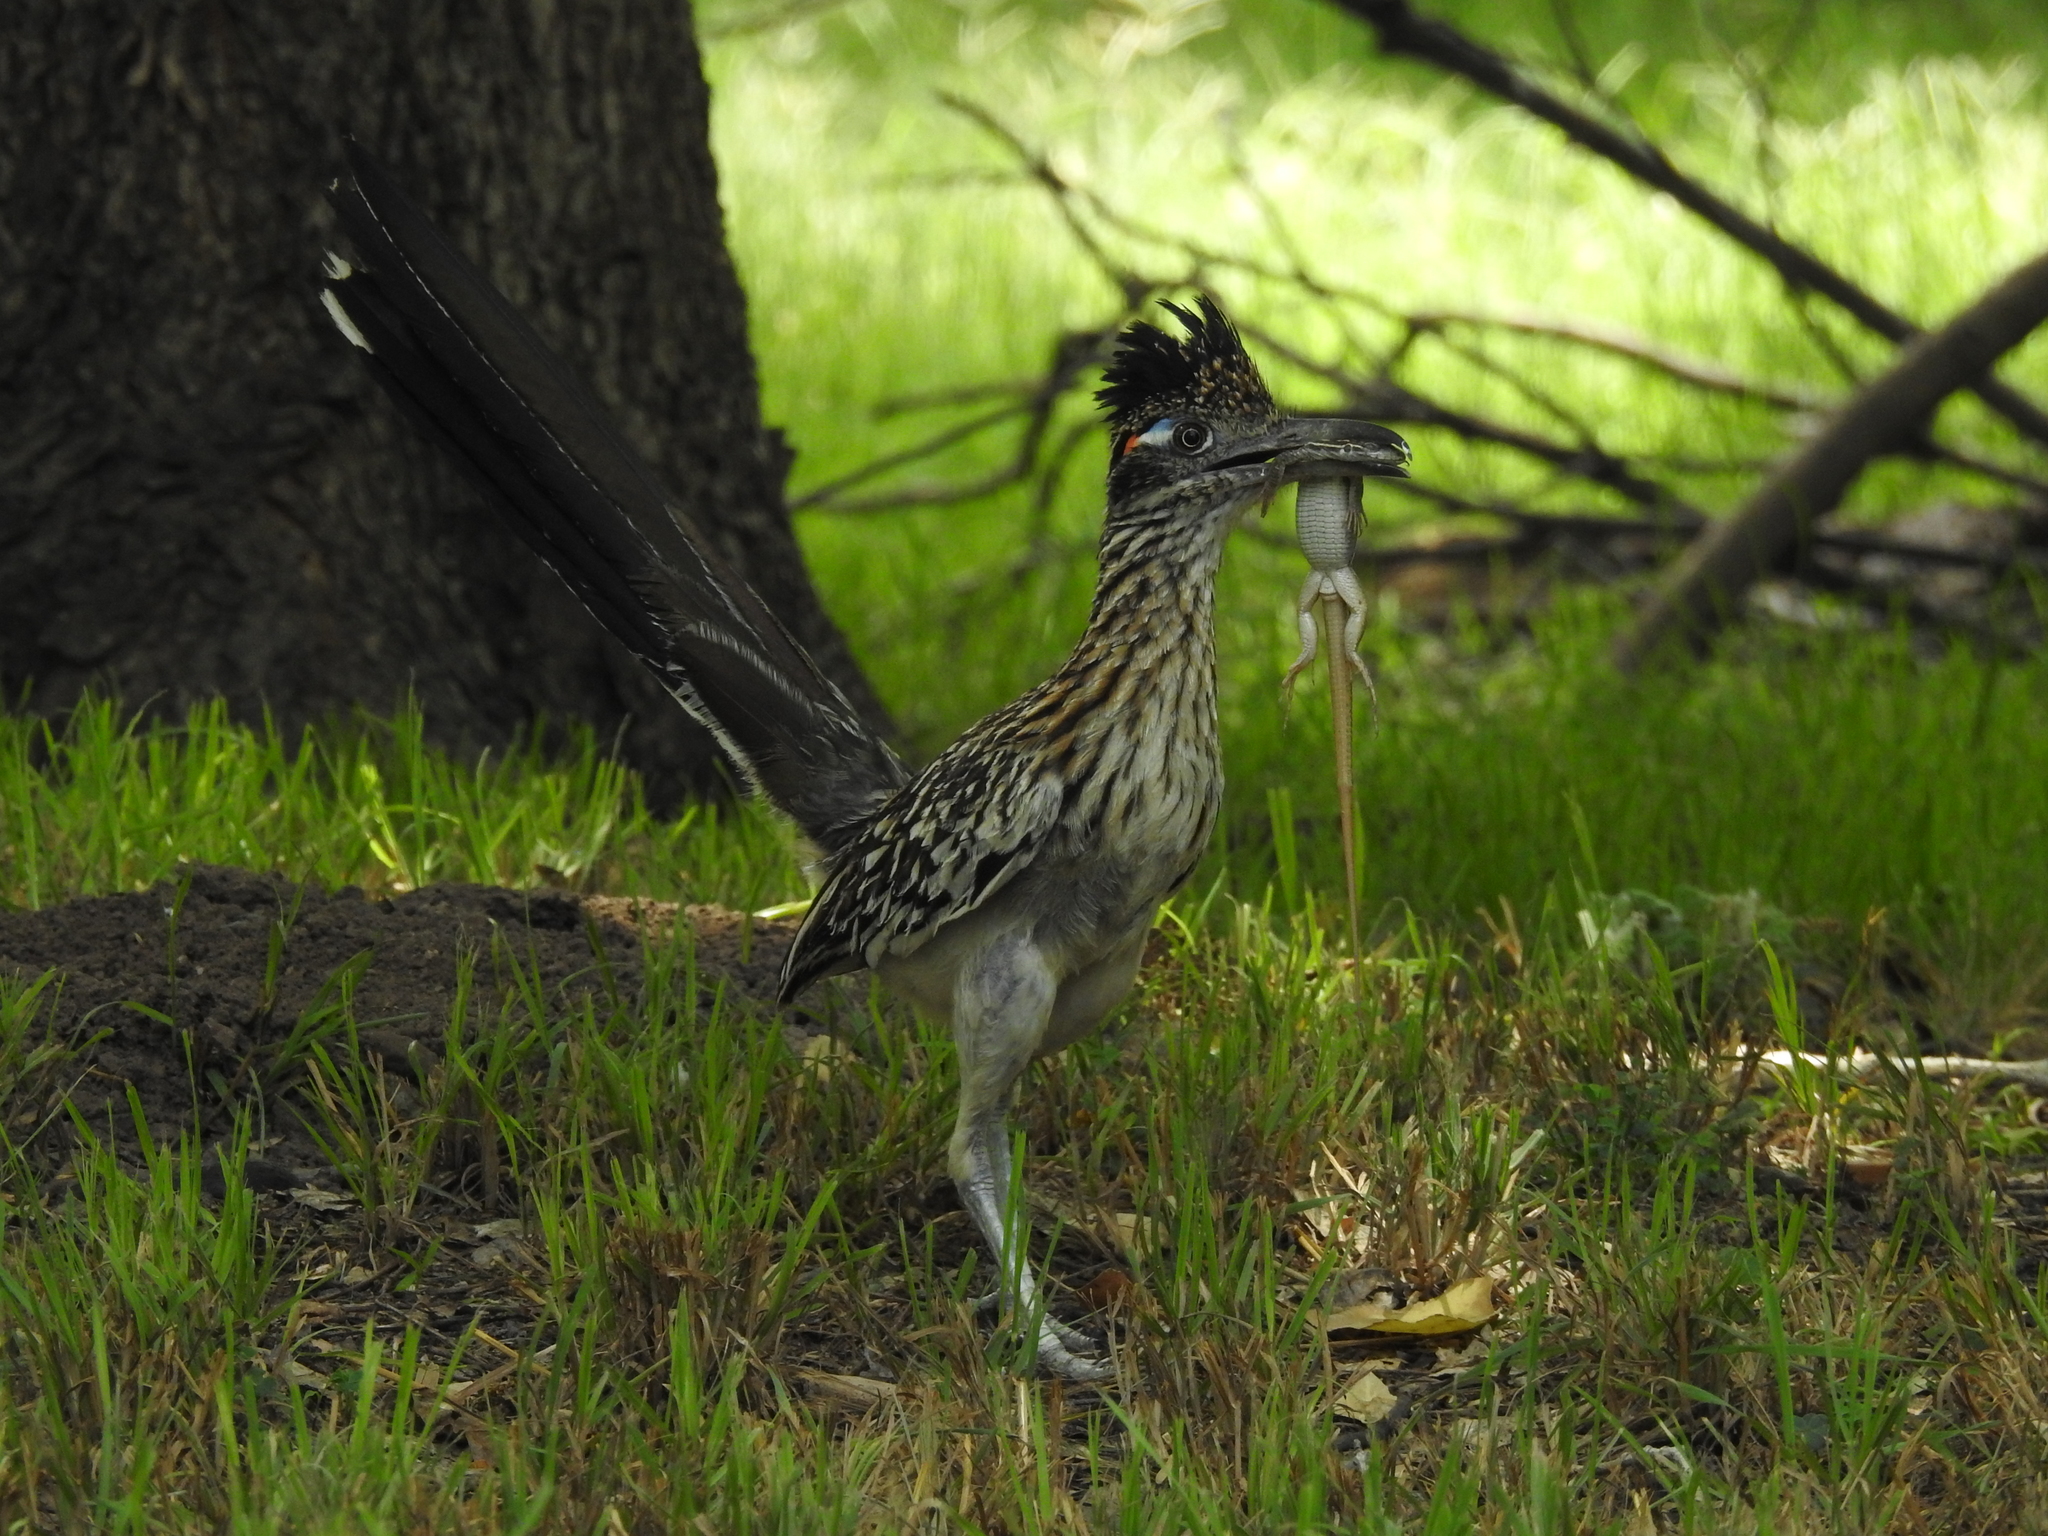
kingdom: Animalia
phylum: Chordata
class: Aves
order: Cuculiformes
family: Cuculidae
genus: Geococcyx
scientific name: Geococcyx californianus
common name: Greater roadrunner
